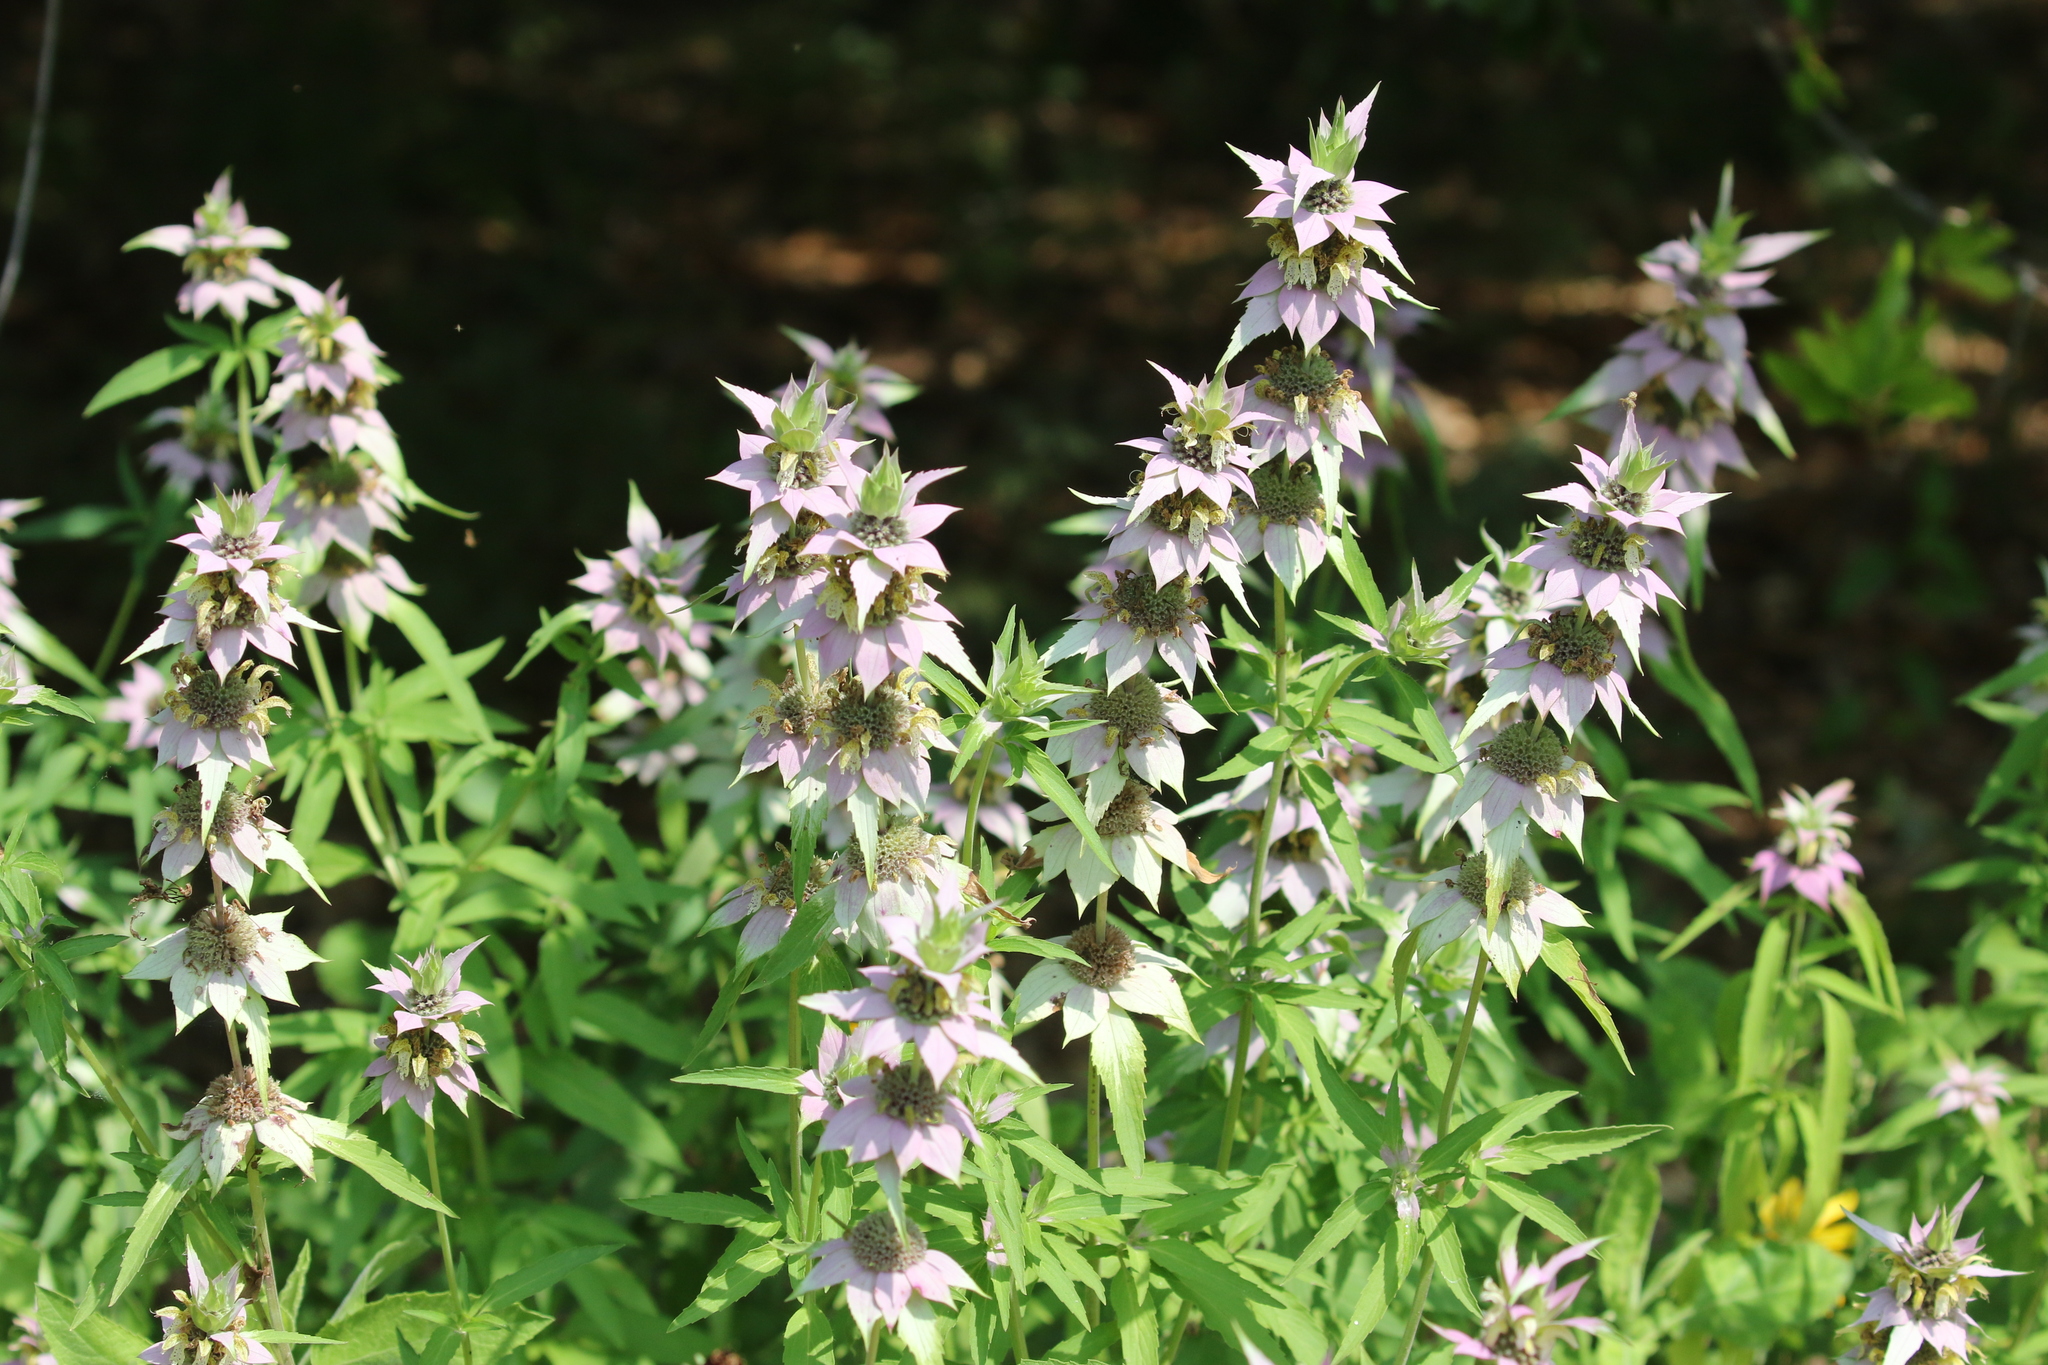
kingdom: Plantae
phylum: Tracheophyta
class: Magnoliopsida
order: Lamiales
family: Lamiaceae
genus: Monarda
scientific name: Monarda punctata
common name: Dotted monarda
